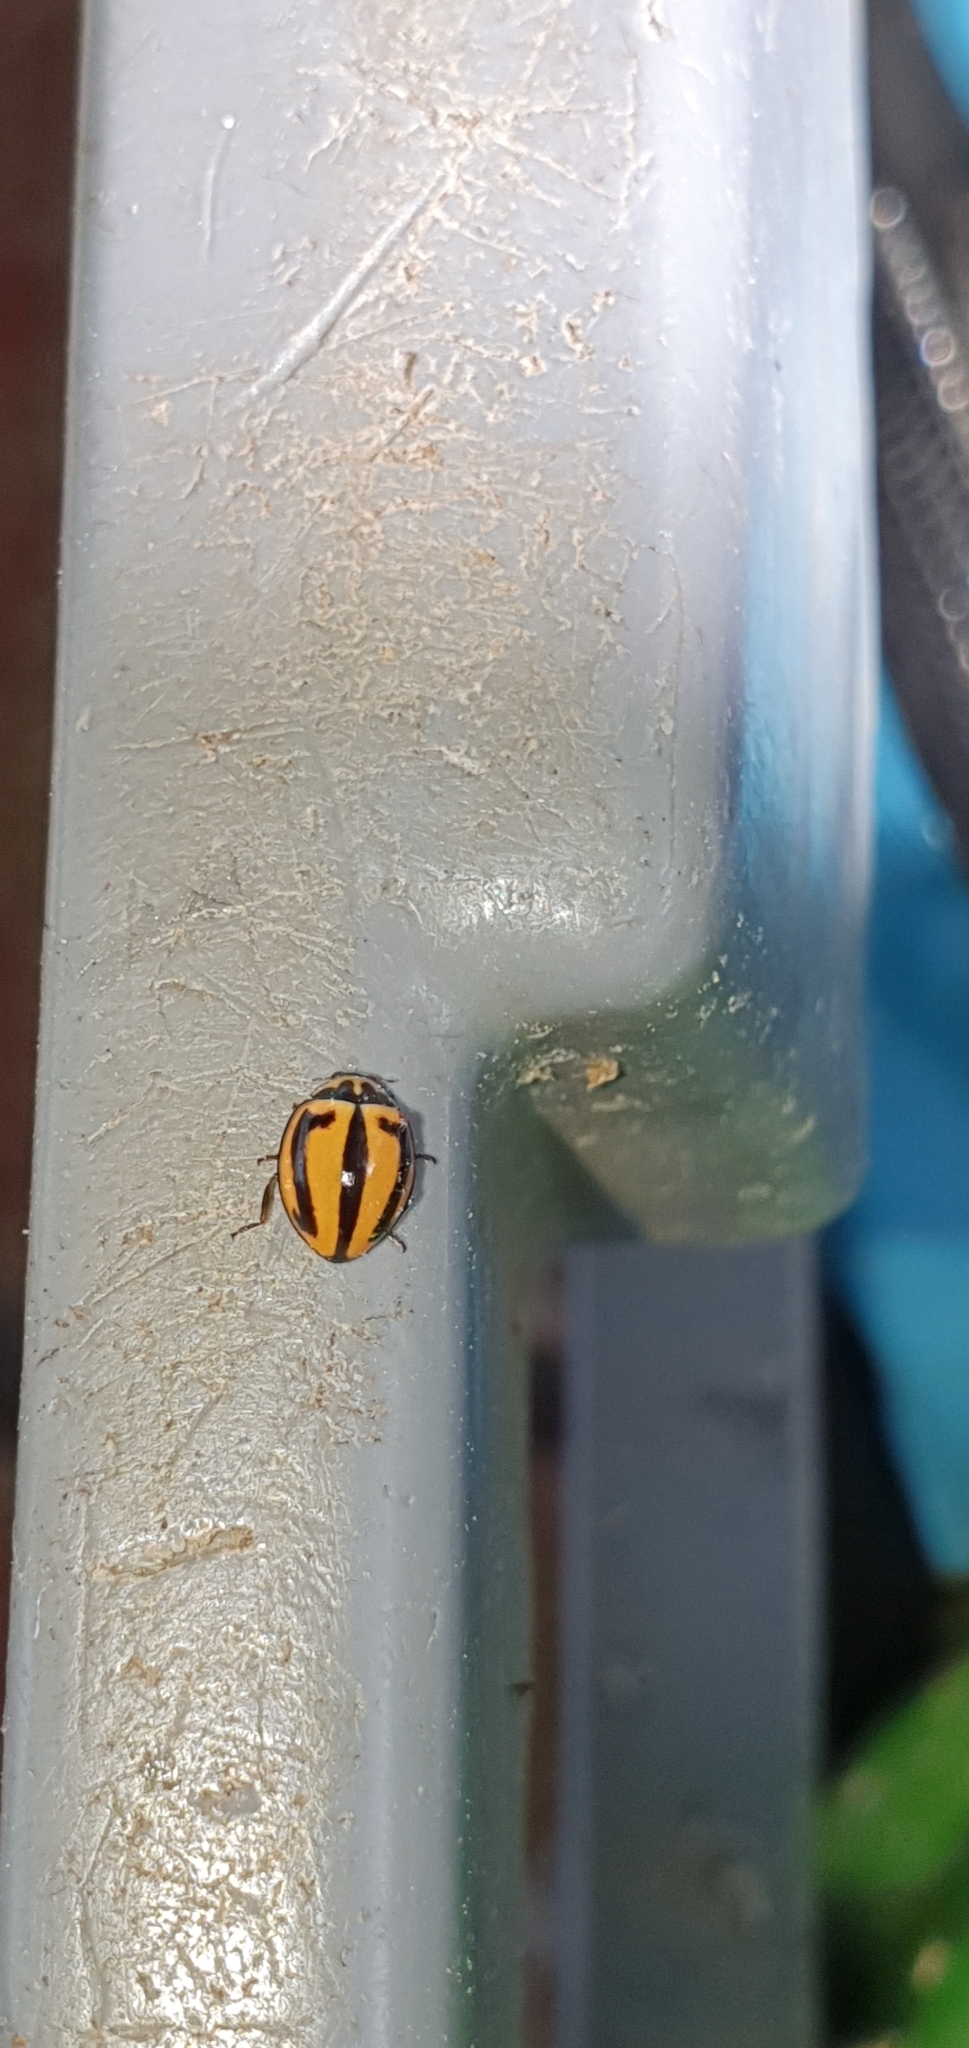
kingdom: Animalia
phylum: Arthropoda
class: Insecta
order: Coleoptera
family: Coccinellidae
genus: Micraspis
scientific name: Micraspis frenata
